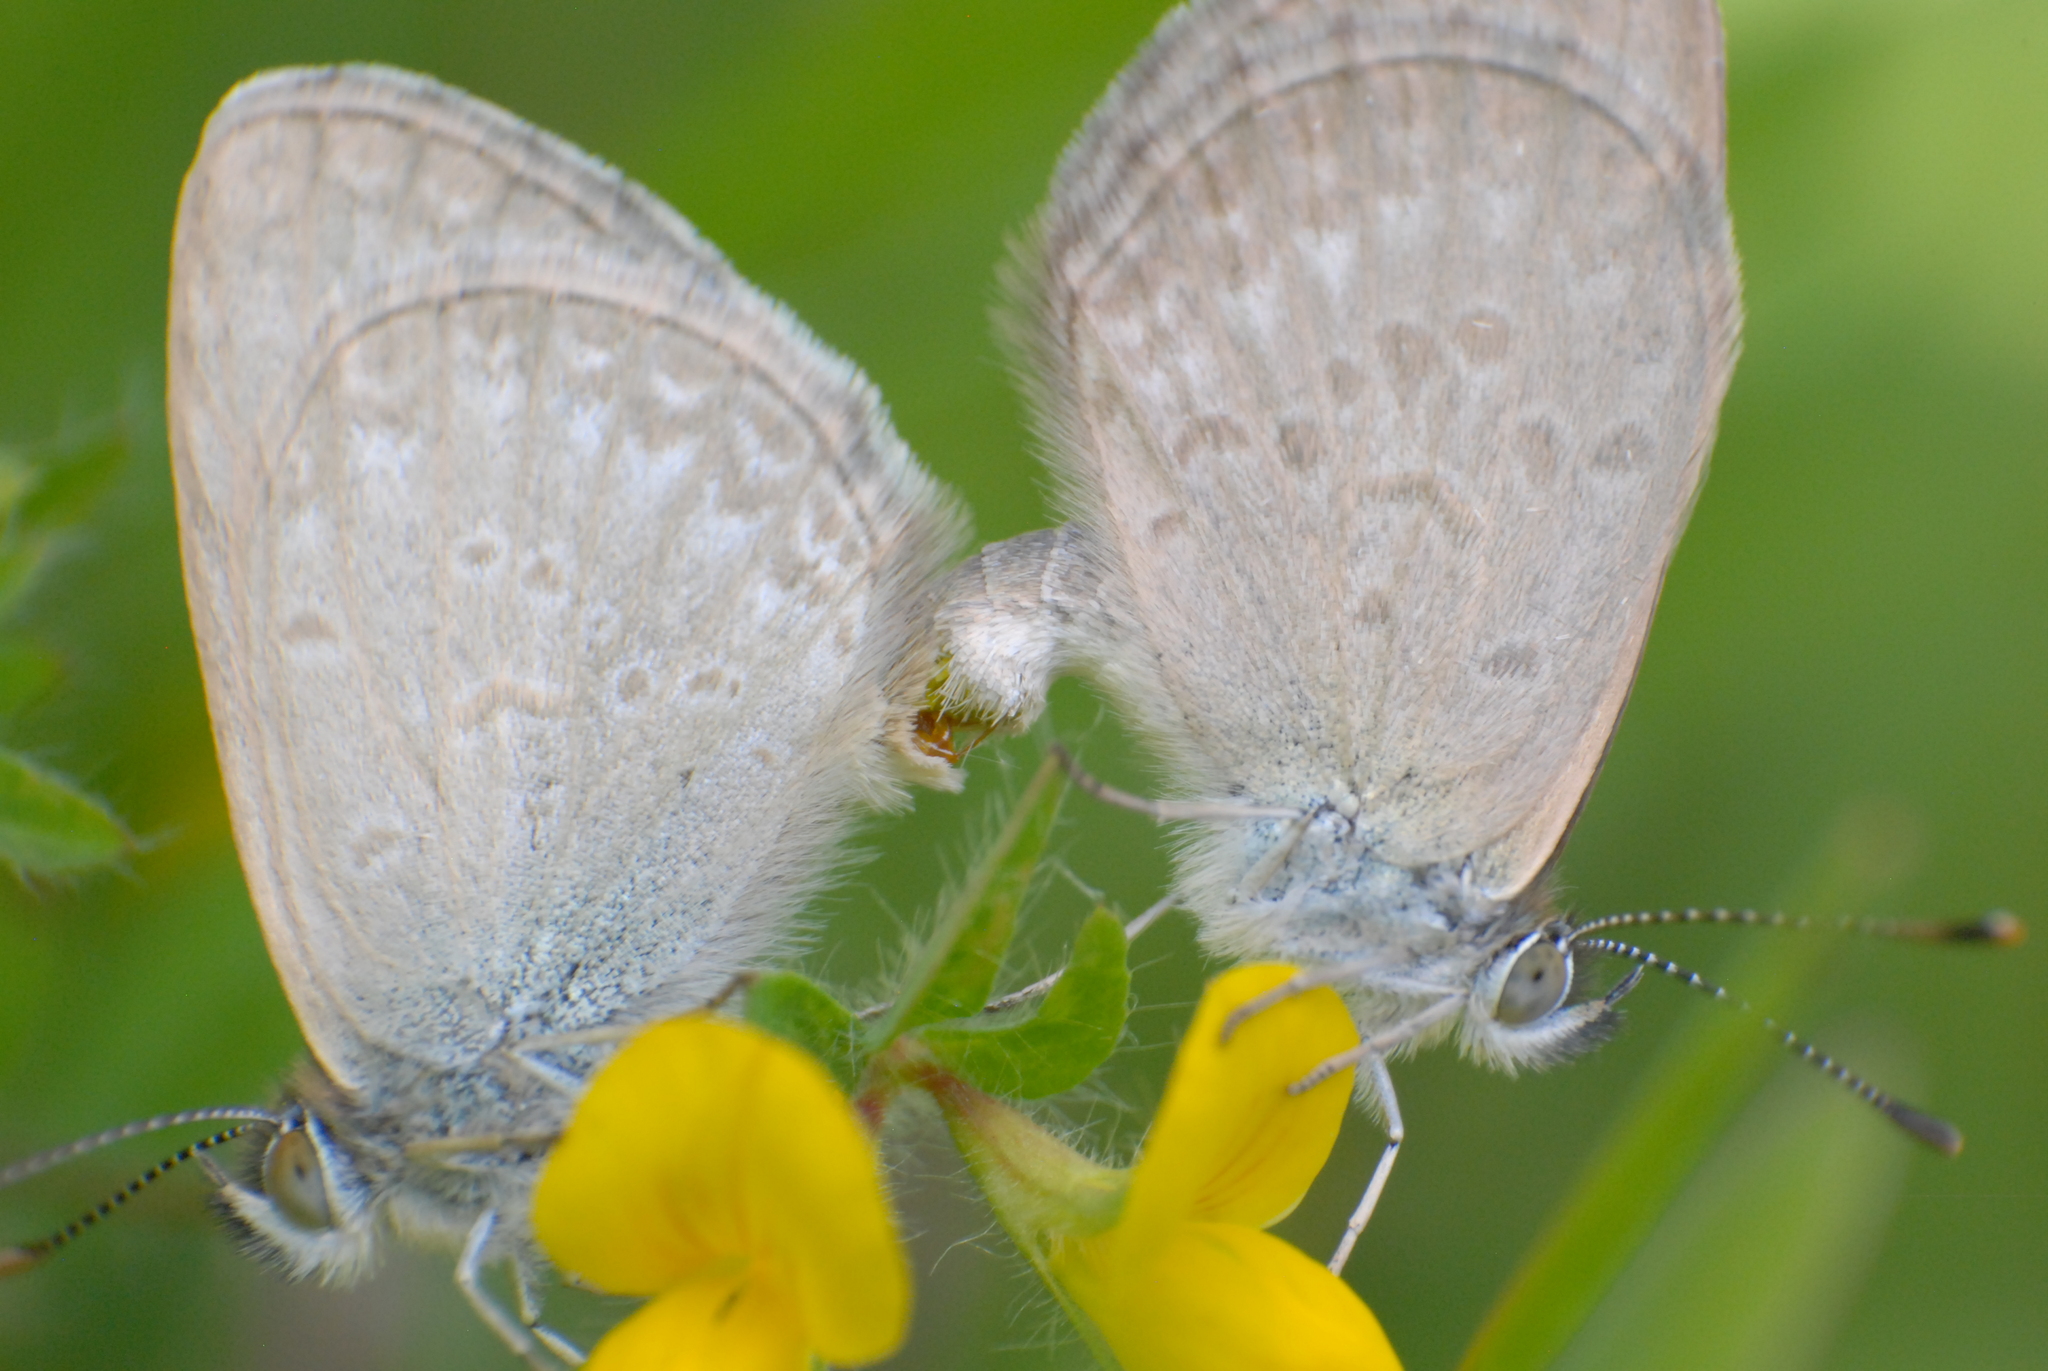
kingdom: Animalia
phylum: Arthropoda
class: Insecta
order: Lepidoptera
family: Lycaenidae
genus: Zizina
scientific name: Zizina otis
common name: Lesser grass blue
